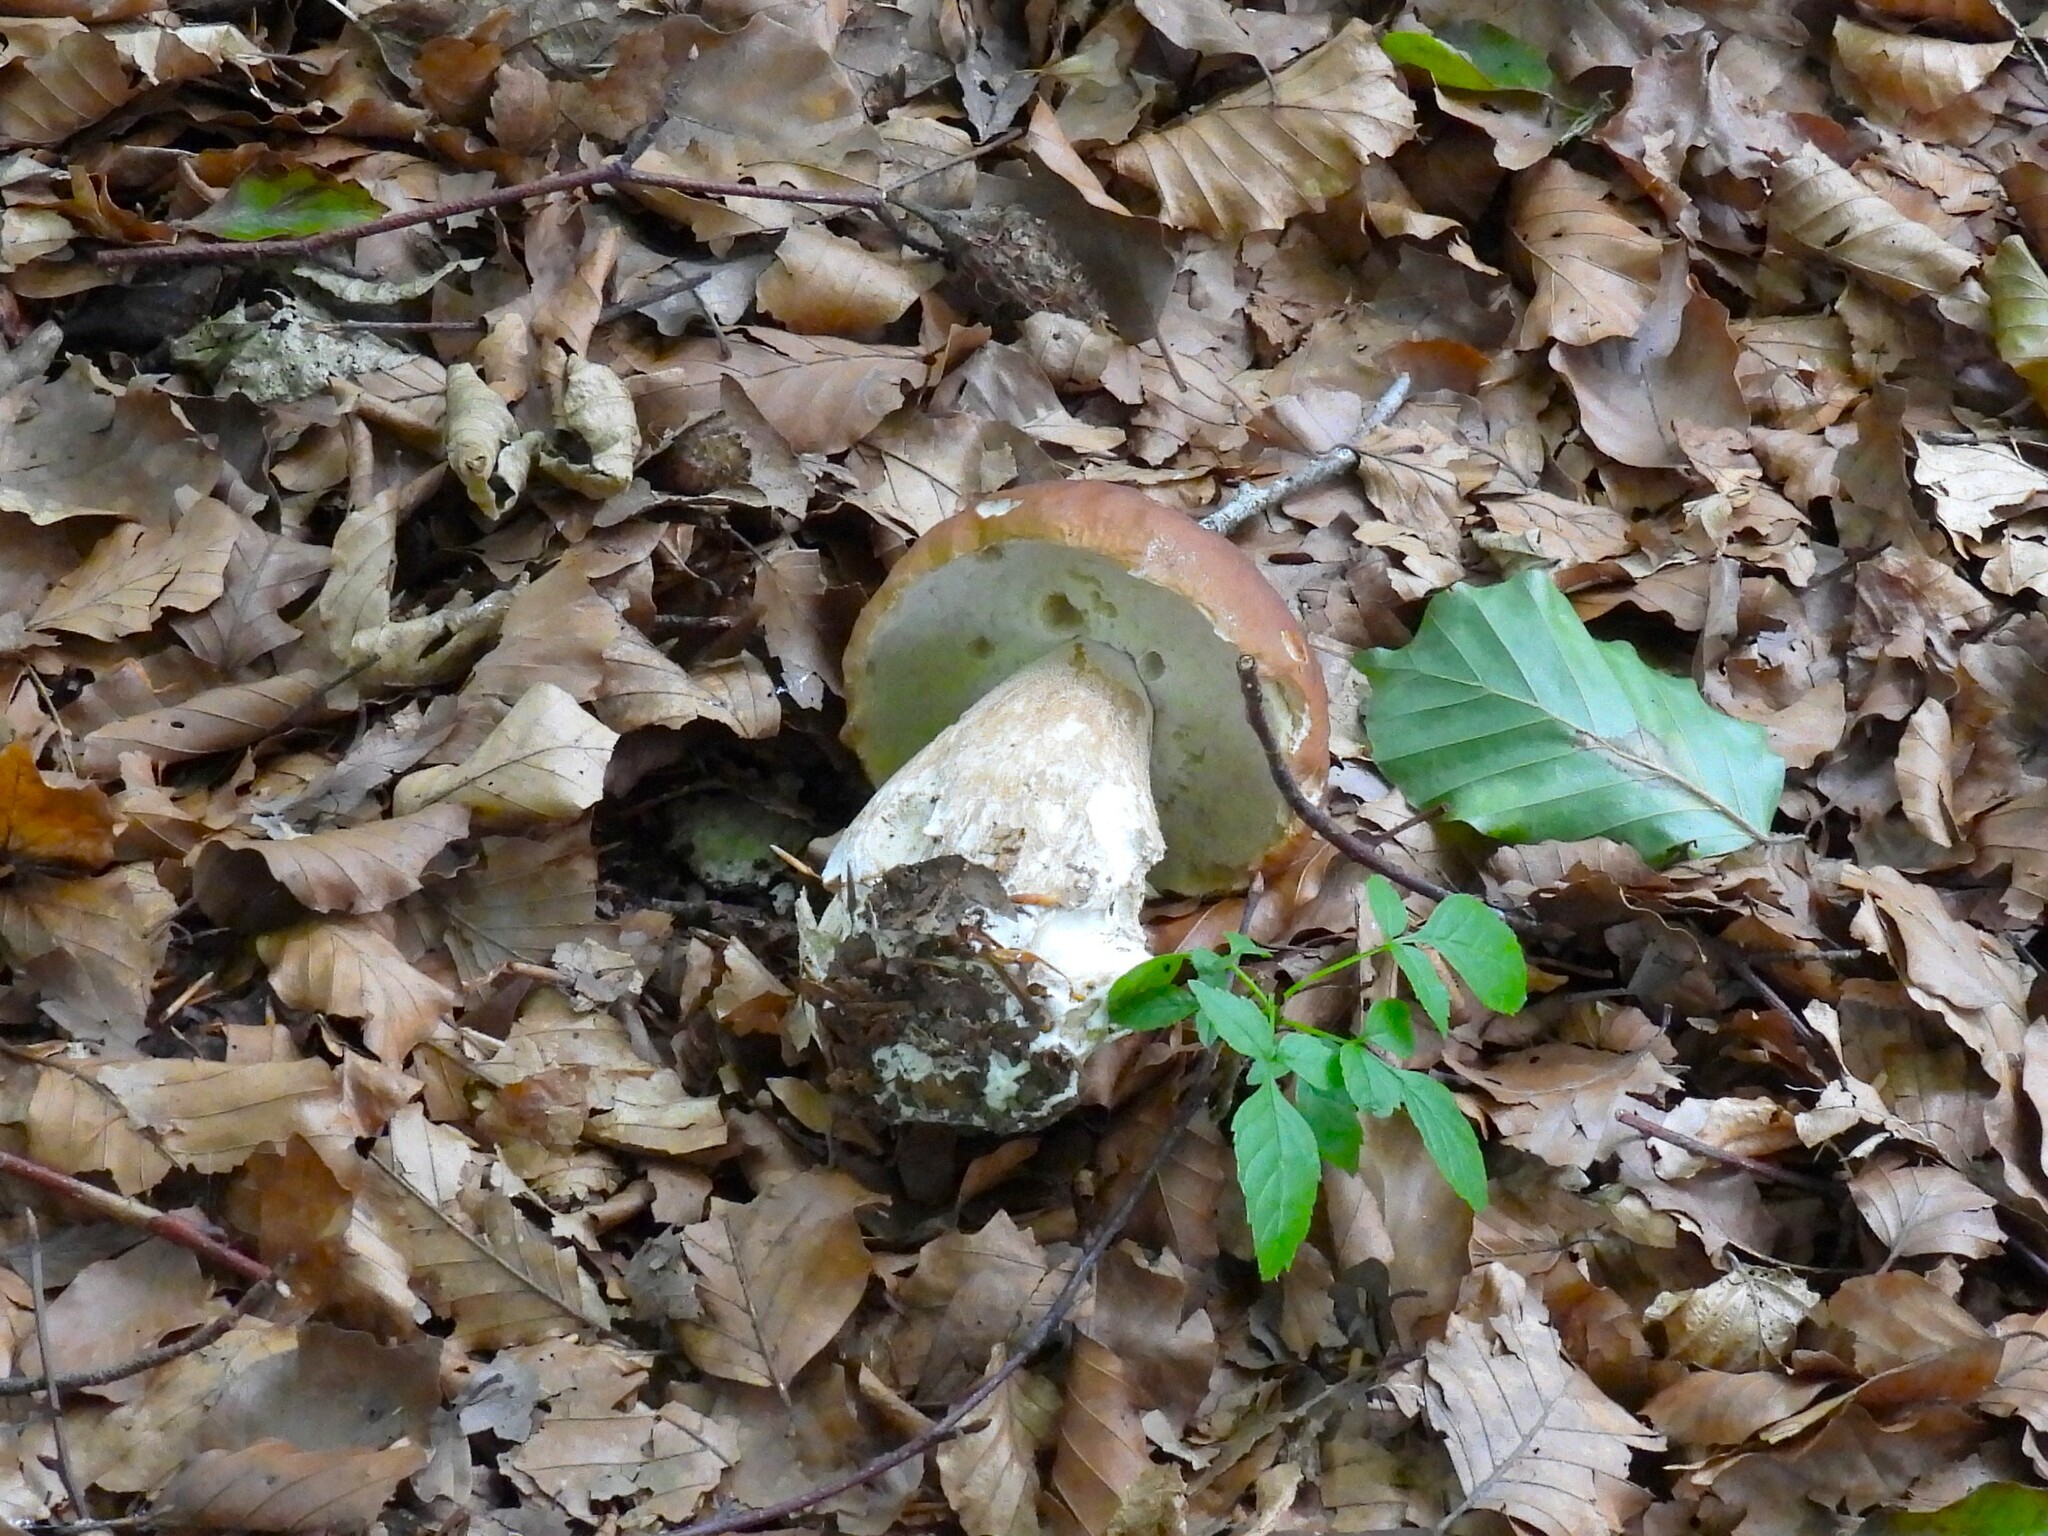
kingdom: Fungi
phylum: Basidiomycota
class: Agaricomycetes
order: Boletales
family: Boletaceae
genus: Boletus
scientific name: Boletus edulis
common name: Cep
